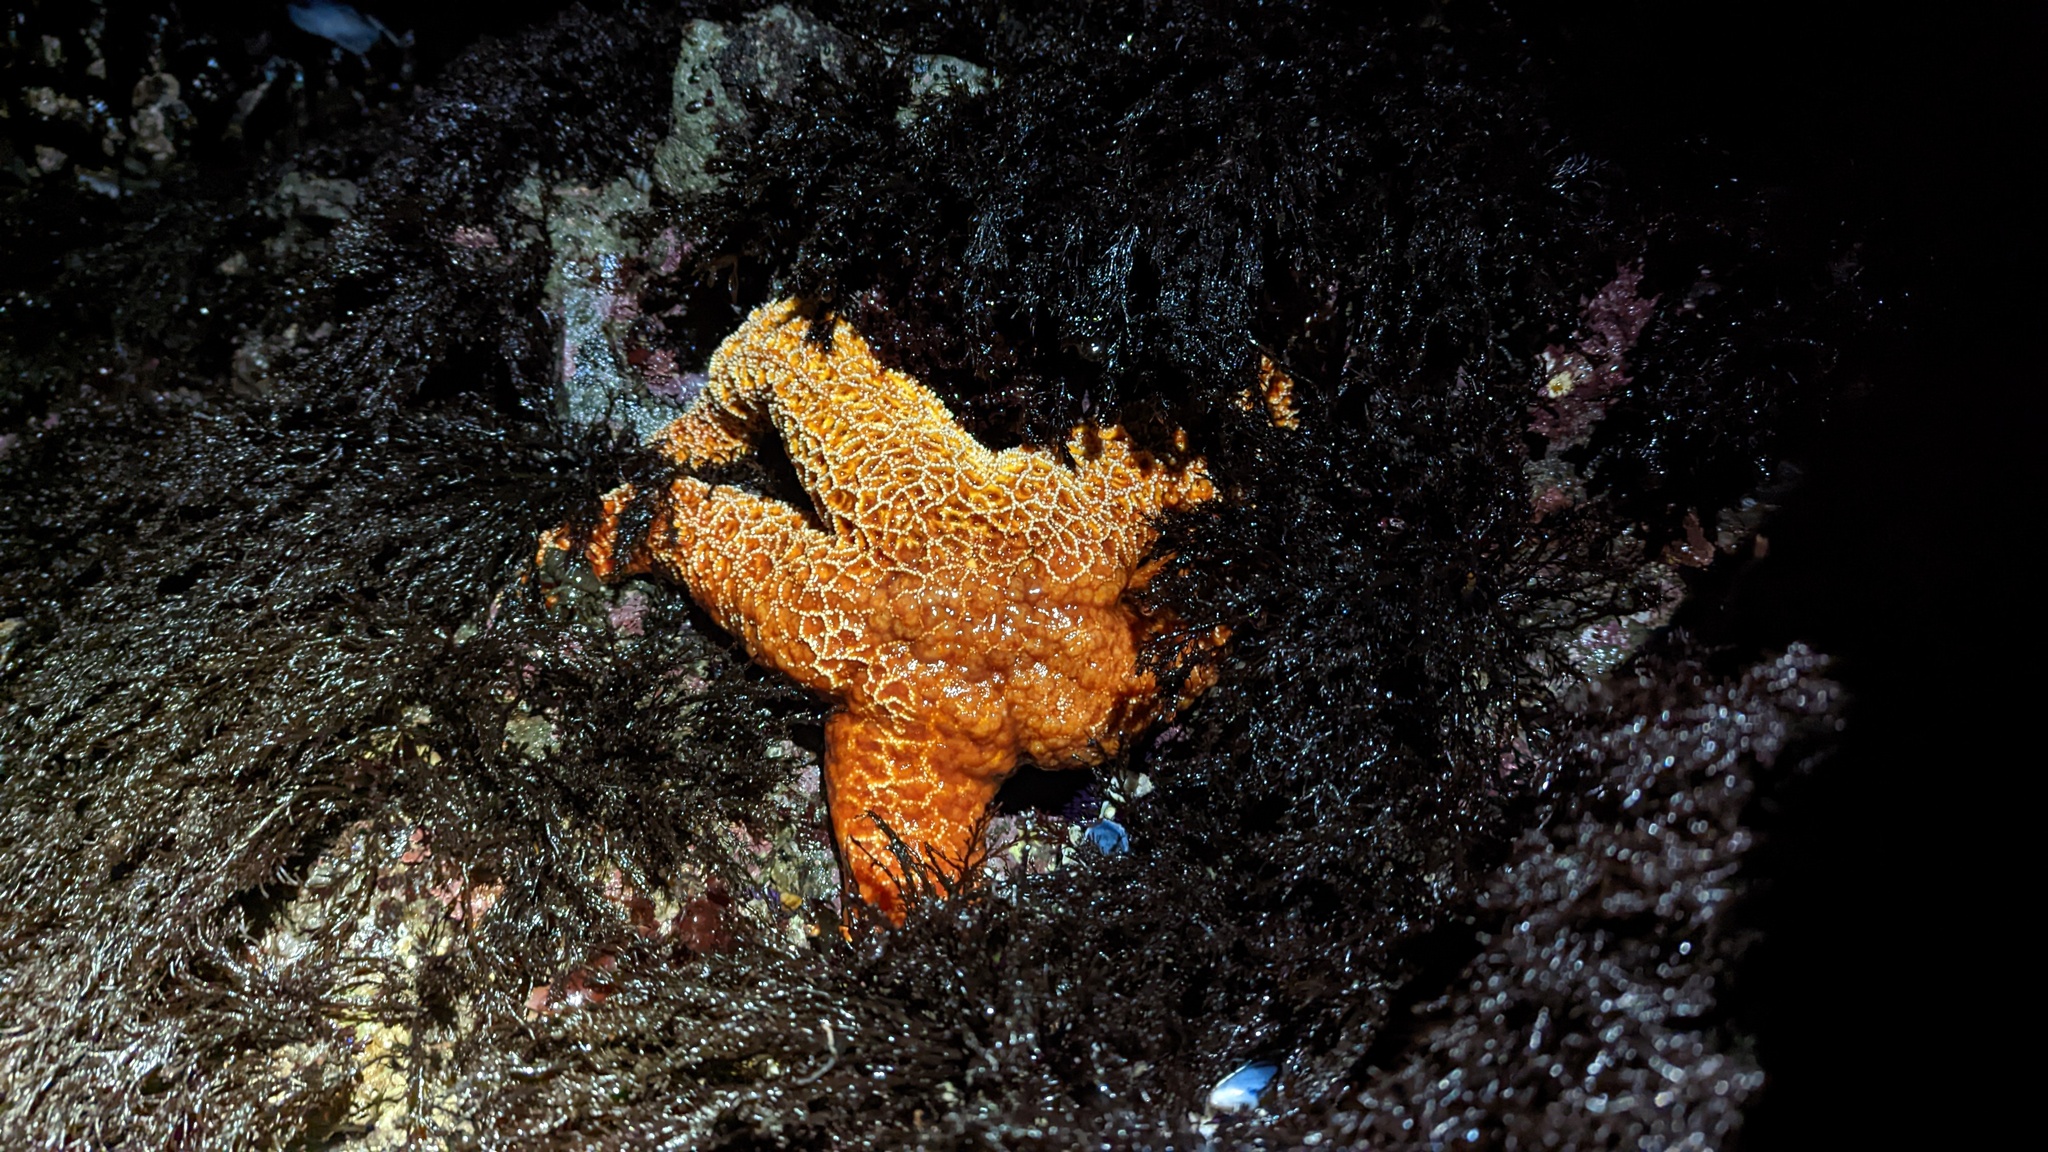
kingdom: Animalia
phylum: Echinodermata
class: Asteroidea
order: Forcipulatida
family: Asteriidae
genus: Pisaster
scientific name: Pisaster ochraceus
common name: Ochre stars
